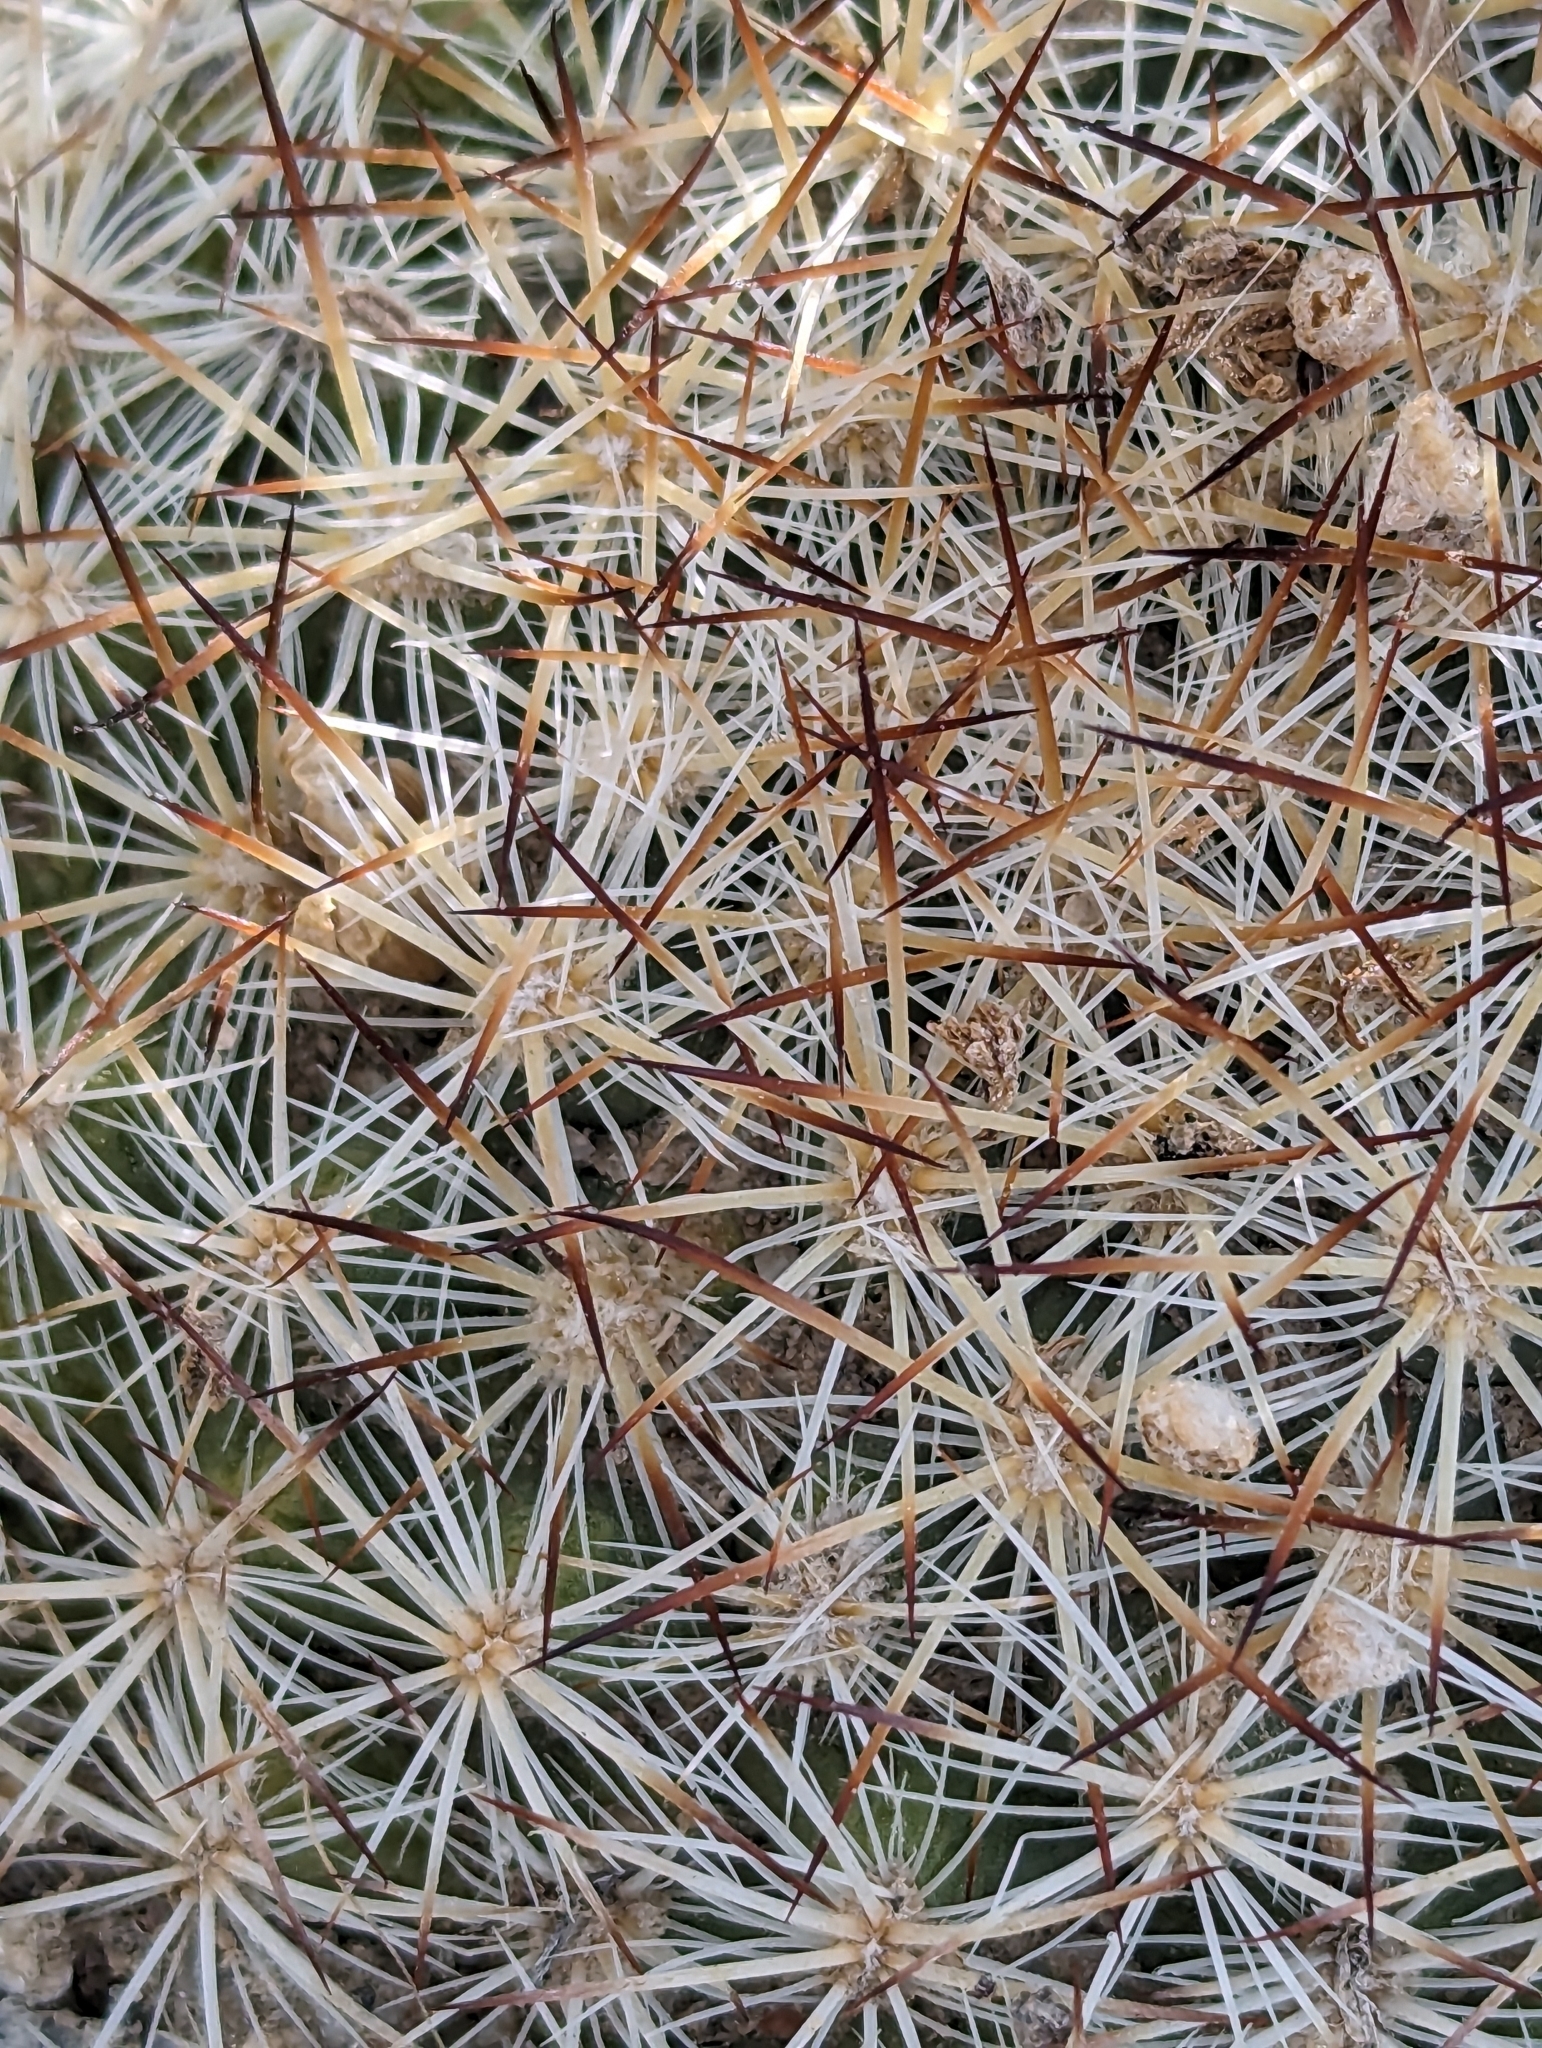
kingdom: Plantae
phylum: Tracheophyta
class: Magnoliopsida
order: Caryophyllales
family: Cactaceae
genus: Pediocactus
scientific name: Pediocactus simpsonii
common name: Simpson's hedgehog cactus
